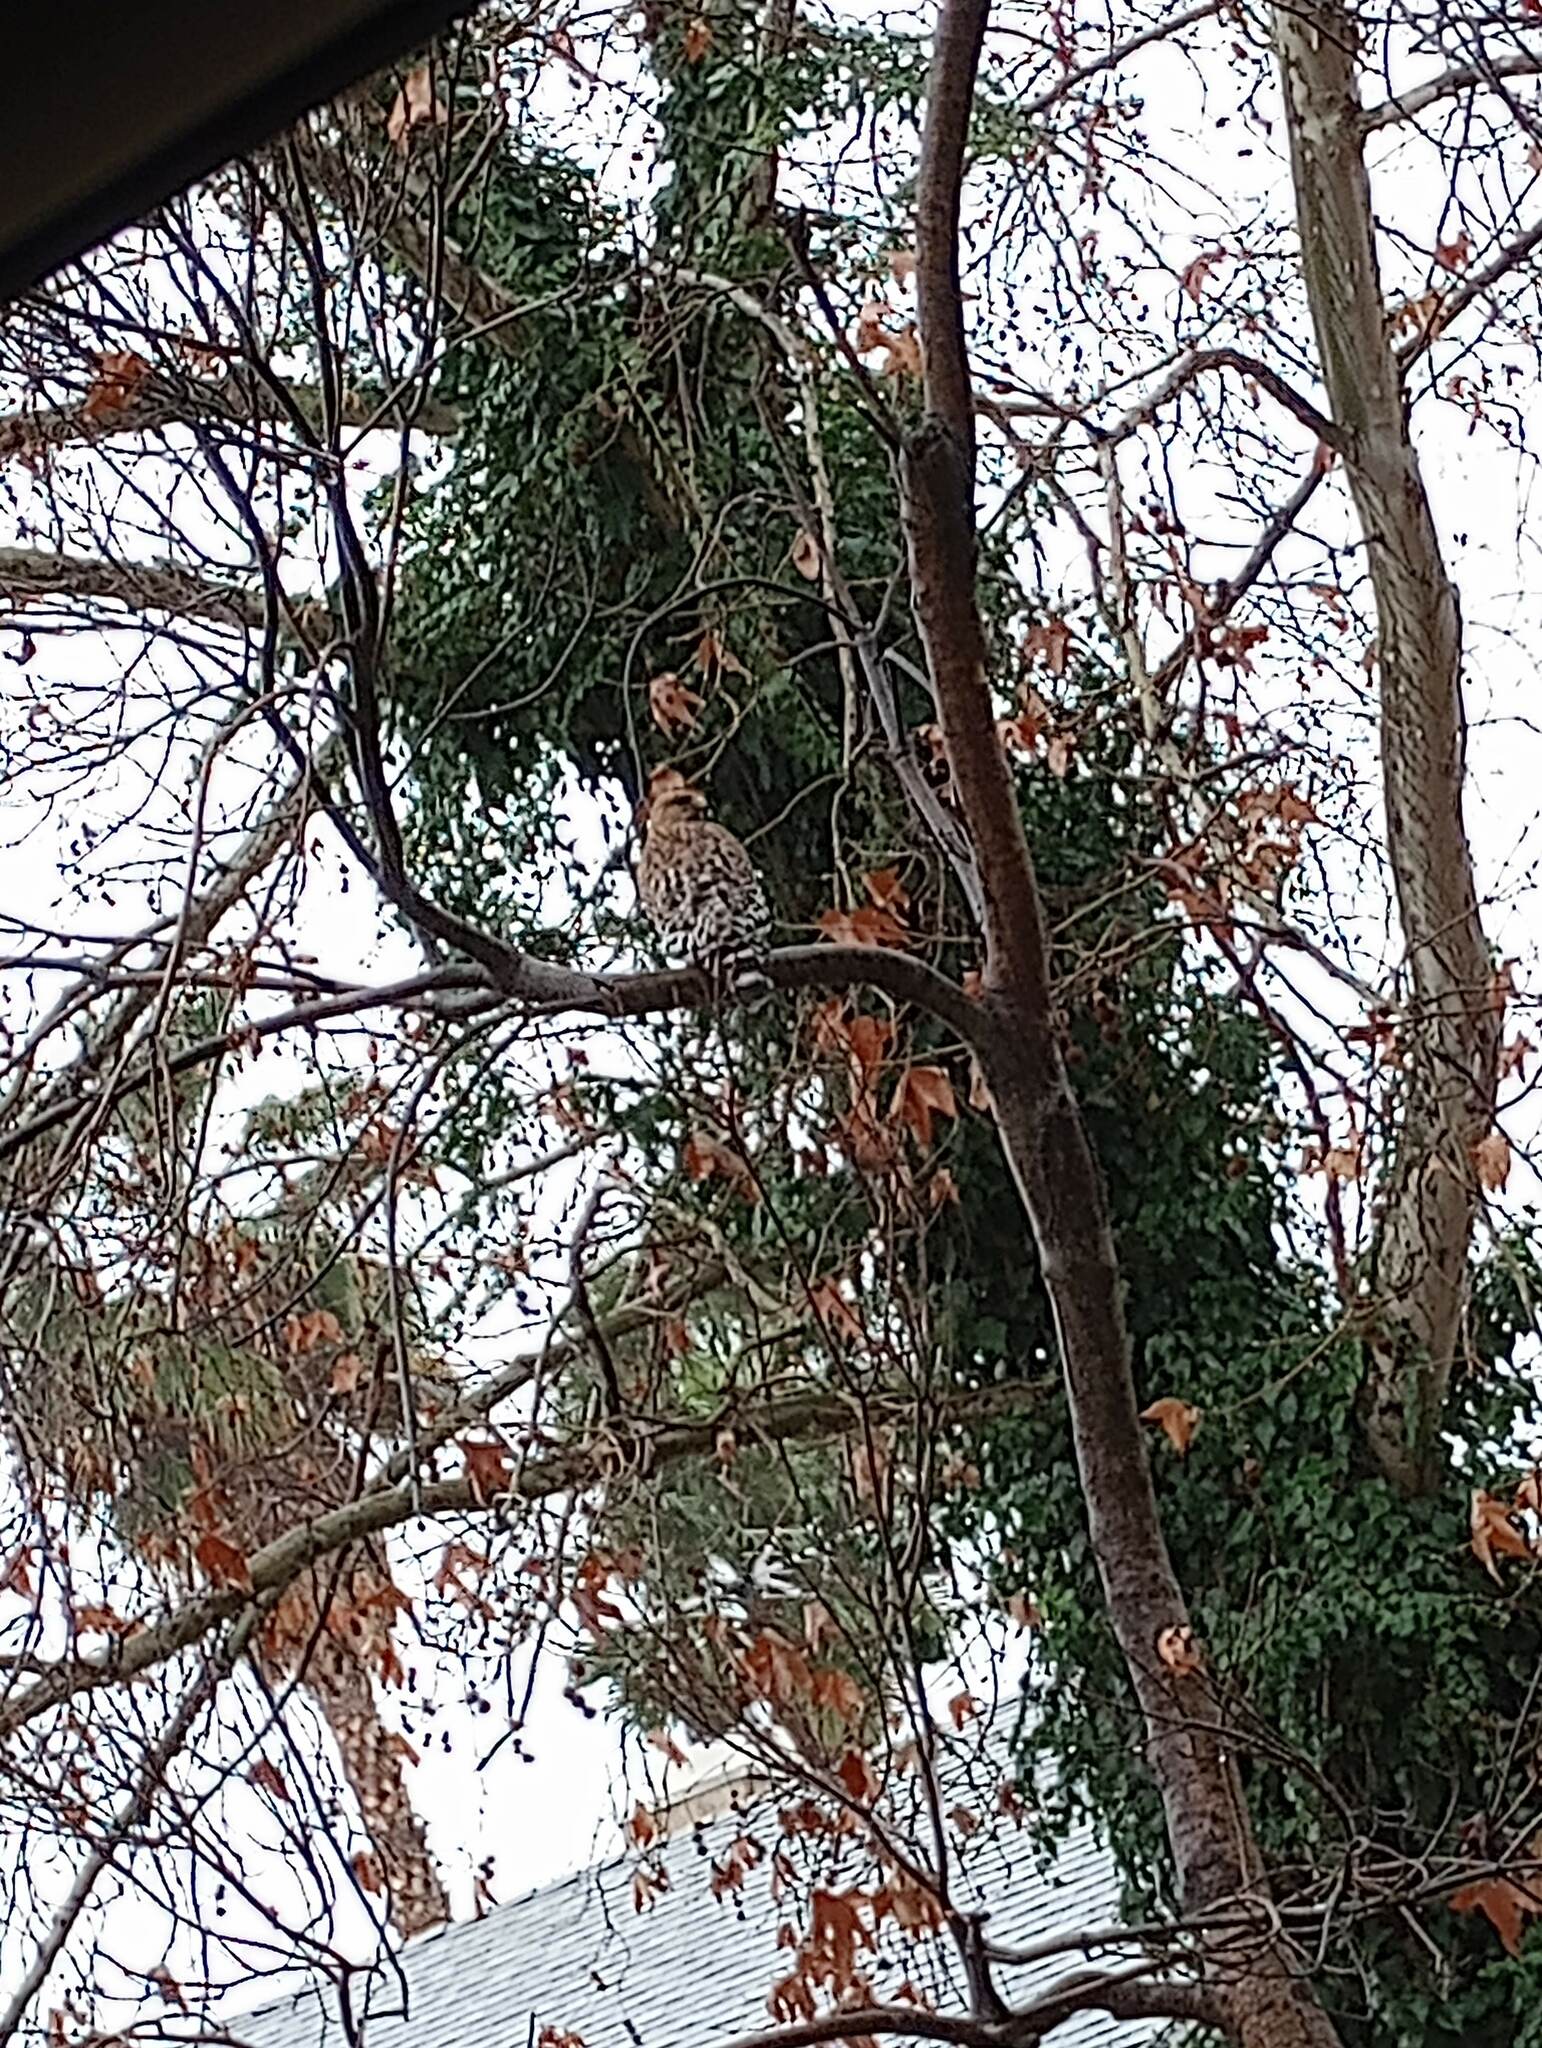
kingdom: Animalia
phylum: Chordata
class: Aves
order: Accipitriformes
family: Accipitridae
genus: Buteo
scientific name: Buteo lineatus
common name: Red-shouldered hawk
